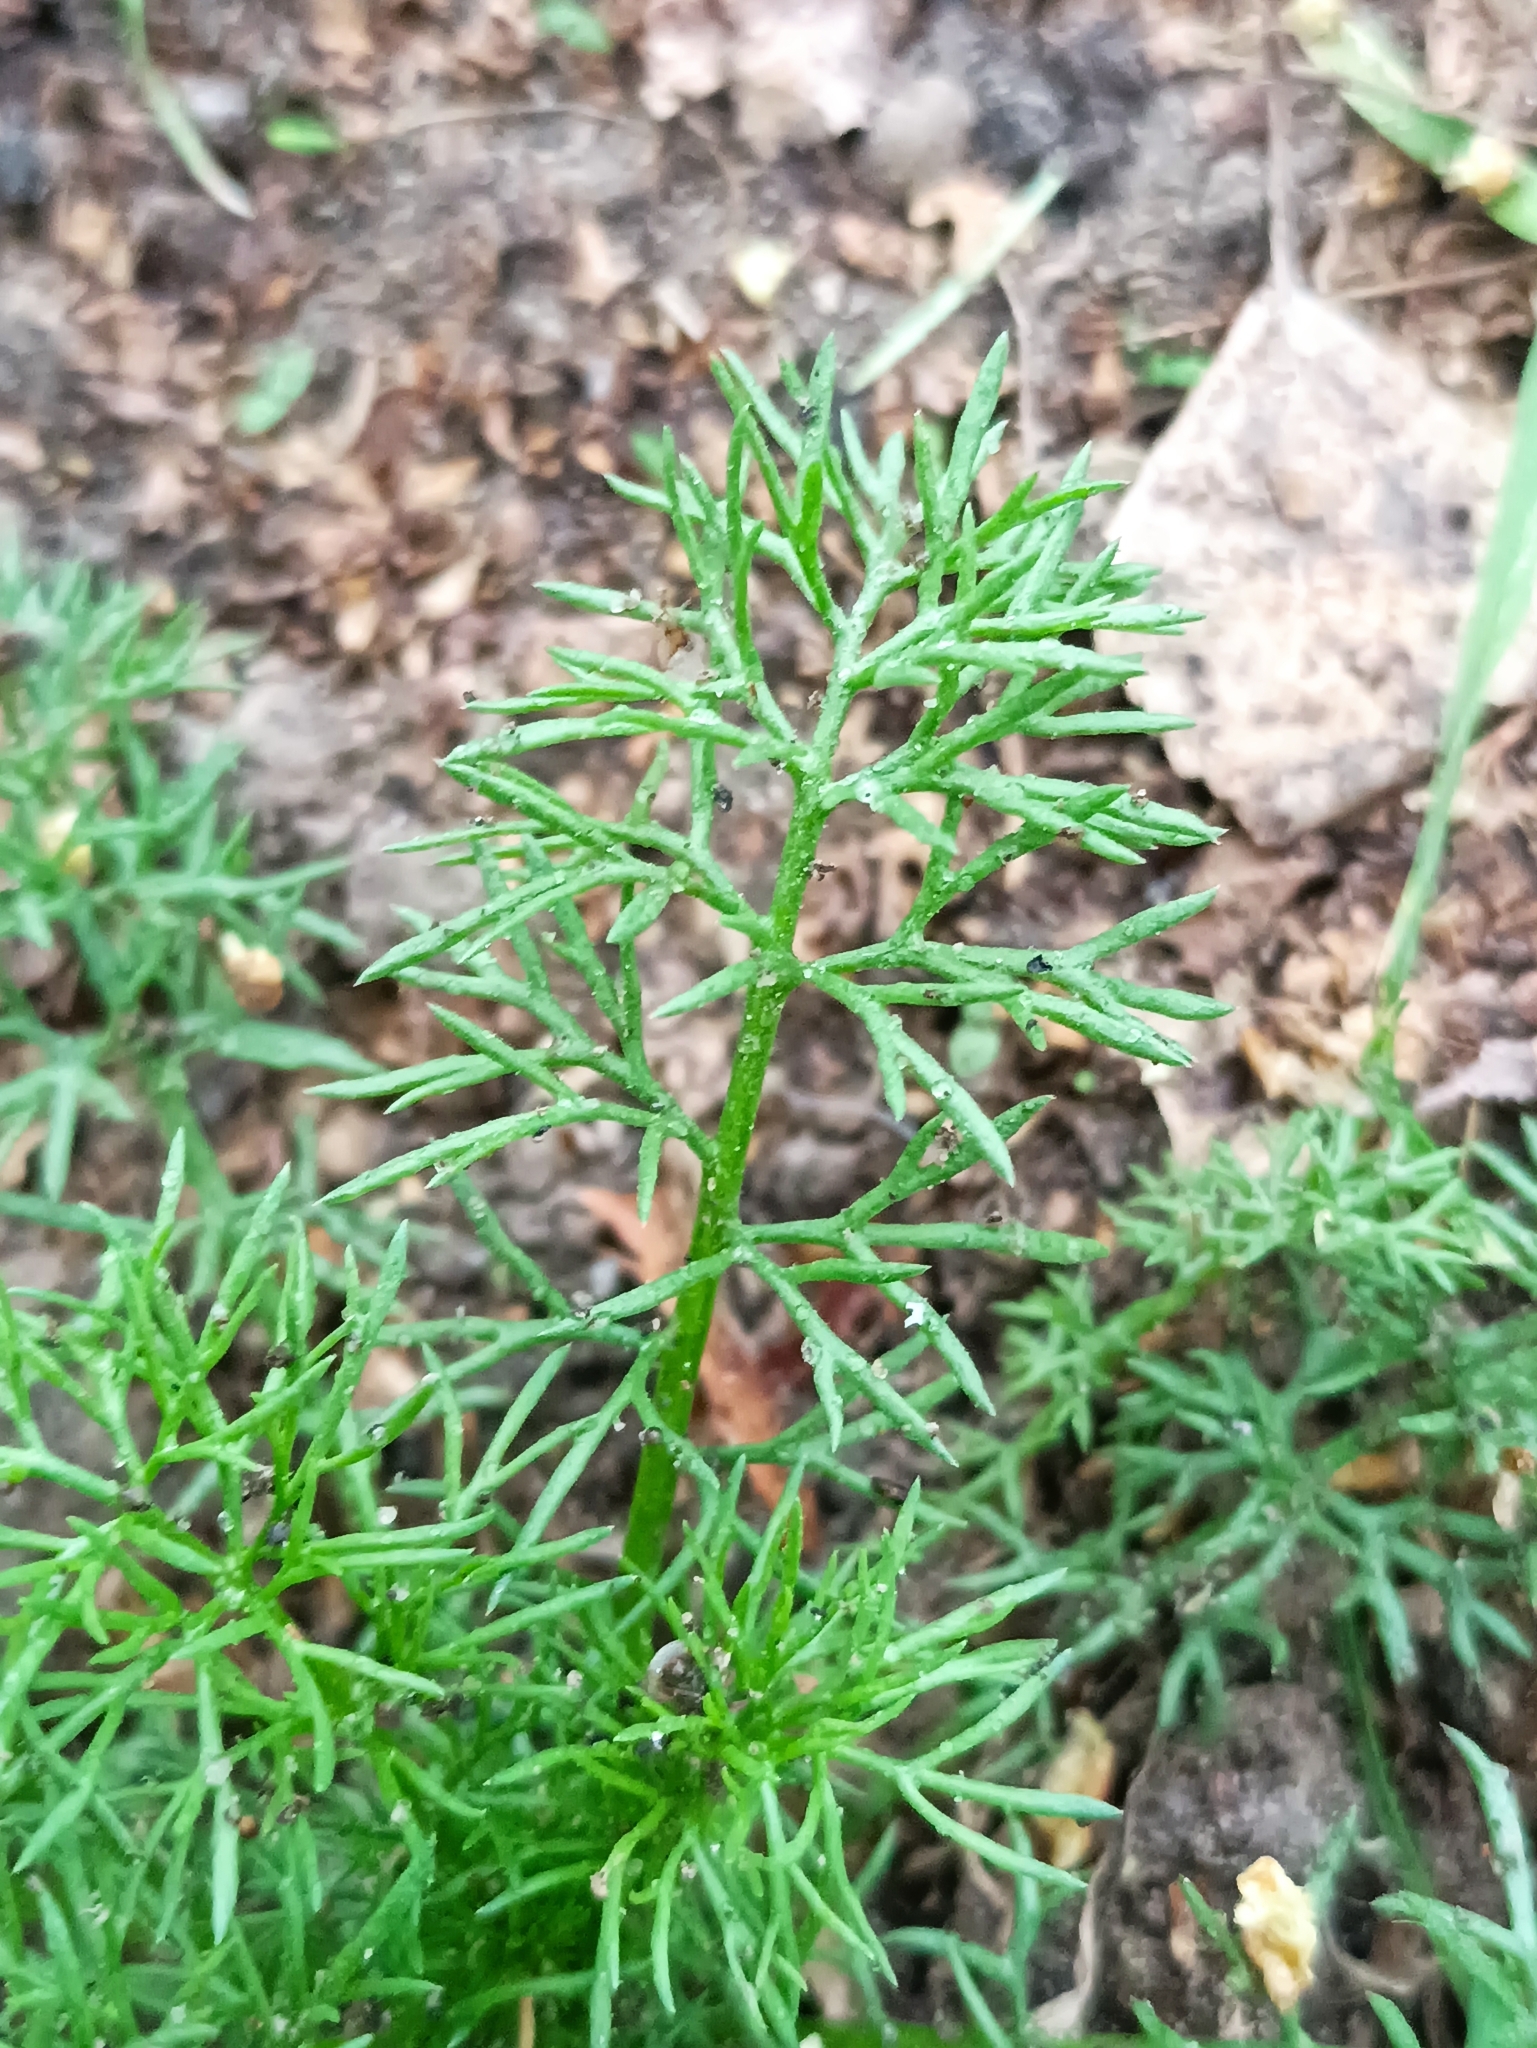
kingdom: Plantae
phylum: Tracheophyta
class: Magnoliopsida
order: Asterales
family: Asteraceae
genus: Tripleurospermum
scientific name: Tripleurospermum inodorum
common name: Scentless mayweed
